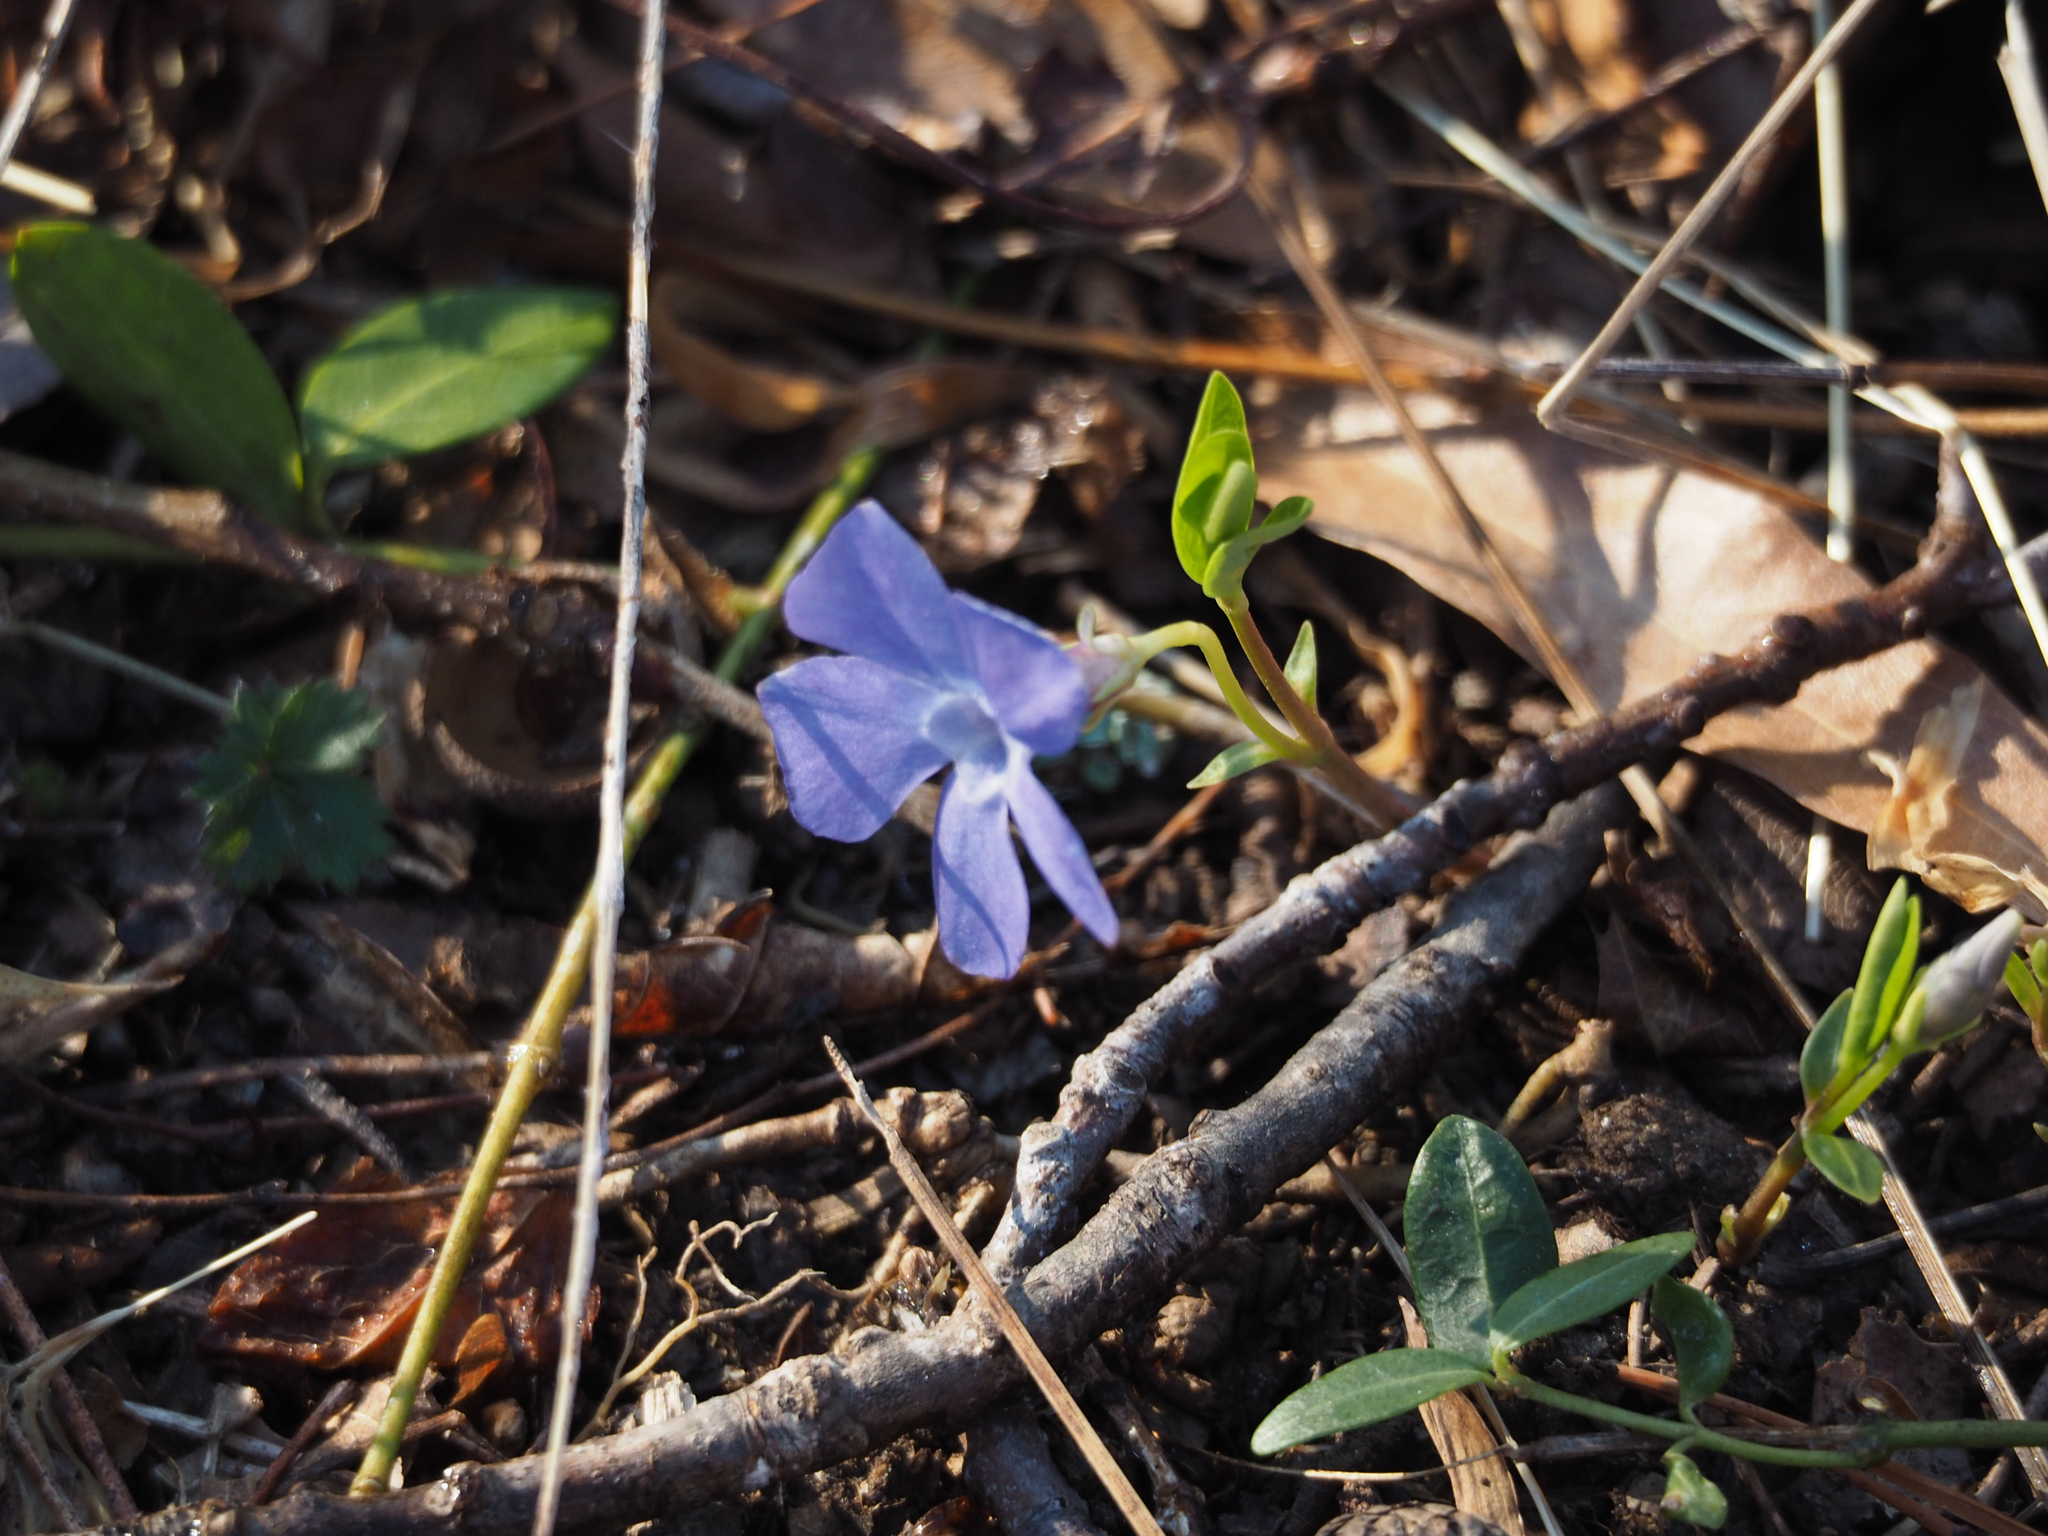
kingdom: Plantae
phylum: Tracheophyta
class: Magnoliopsida
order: Gentianales
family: Apocynaceae
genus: Vinca
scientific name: Vinca minor
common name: Lesser periwinkle
